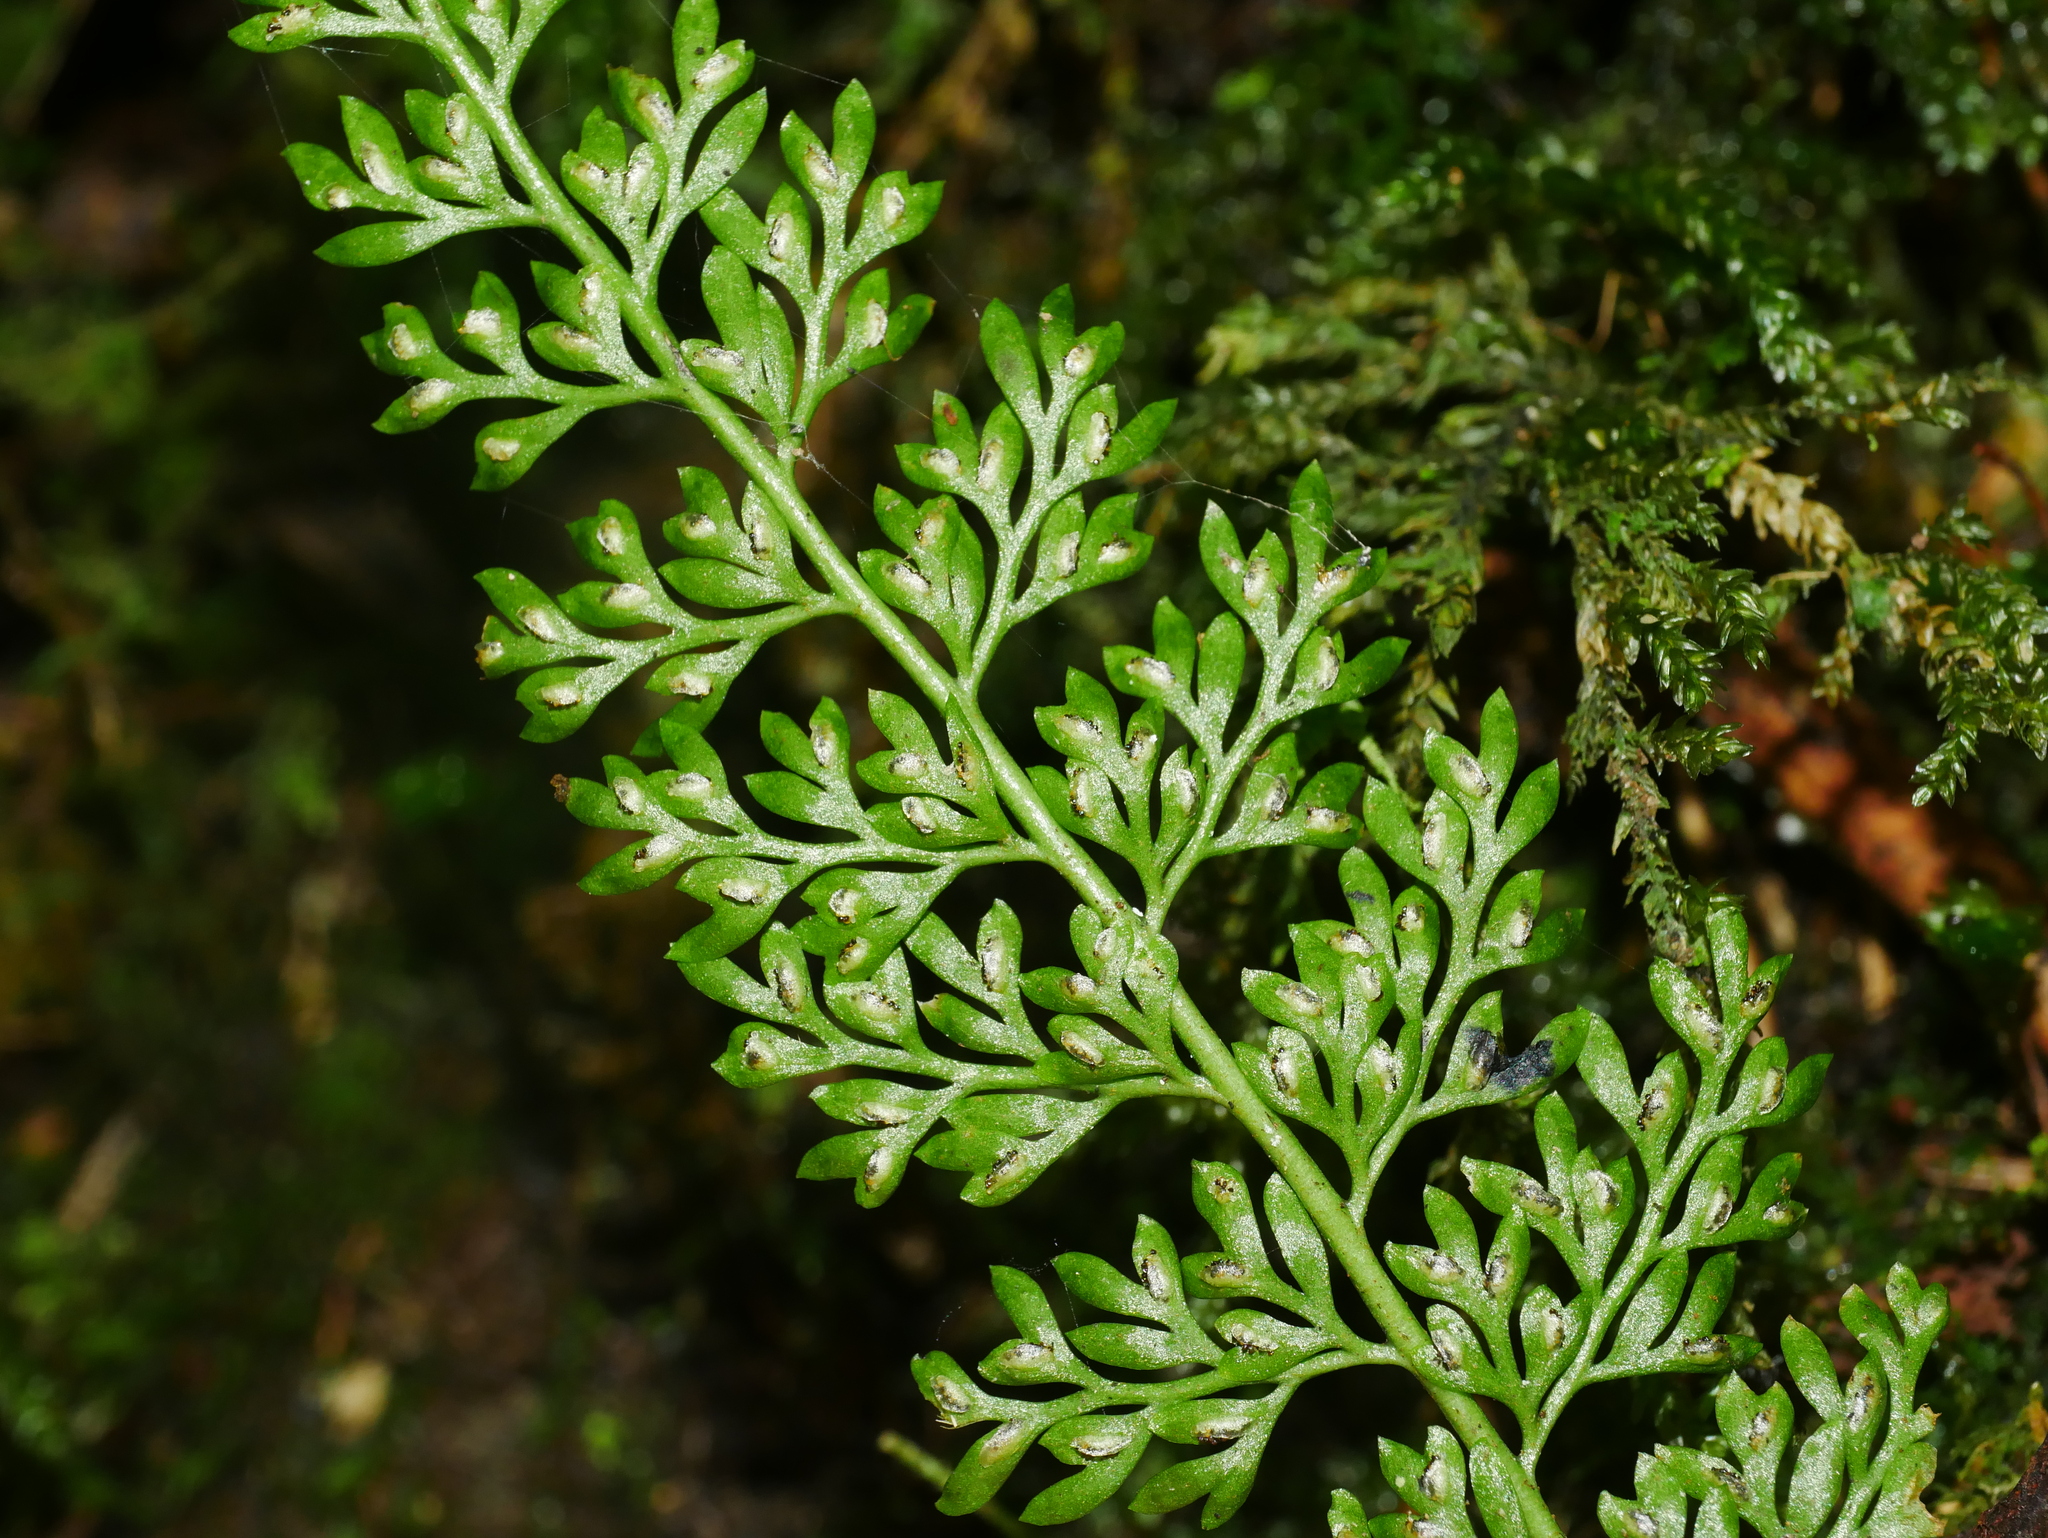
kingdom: Plantae
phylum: Tracheophyta
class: Polypodiopsida
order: Polypodiales
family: Aspleniaceae
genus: Asplenium
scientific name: Asplenium tenuifolium
